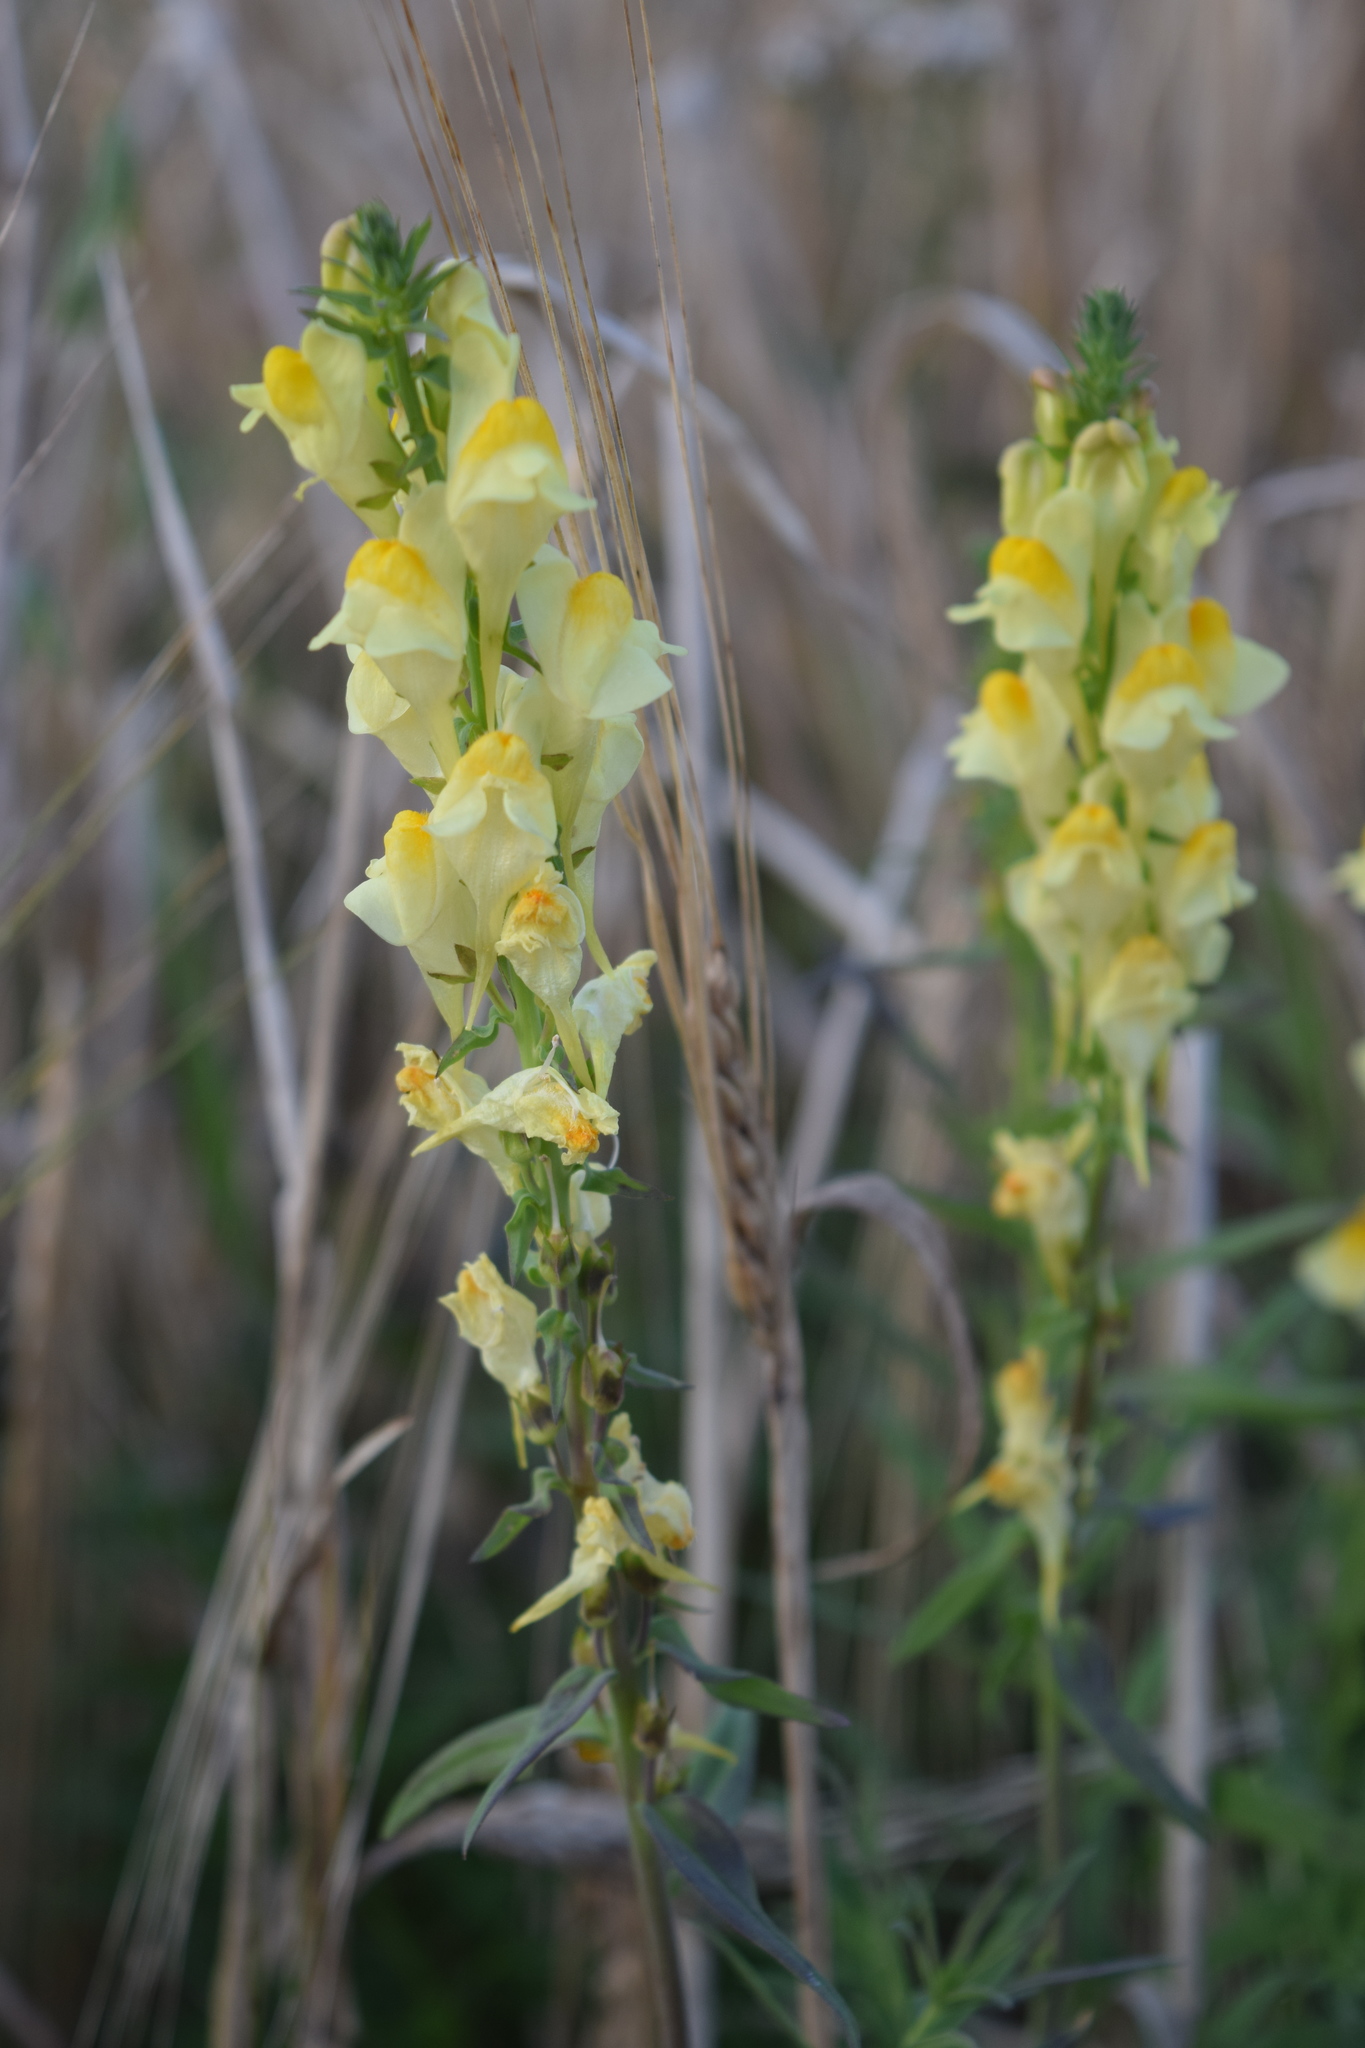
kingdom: Plantae
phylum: Tracheophyta
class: Magnoliopsida
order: Lamiales
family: Plantaginaceae
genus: Linaria
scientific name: Linaria vulgaris
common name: Butter and eggs
